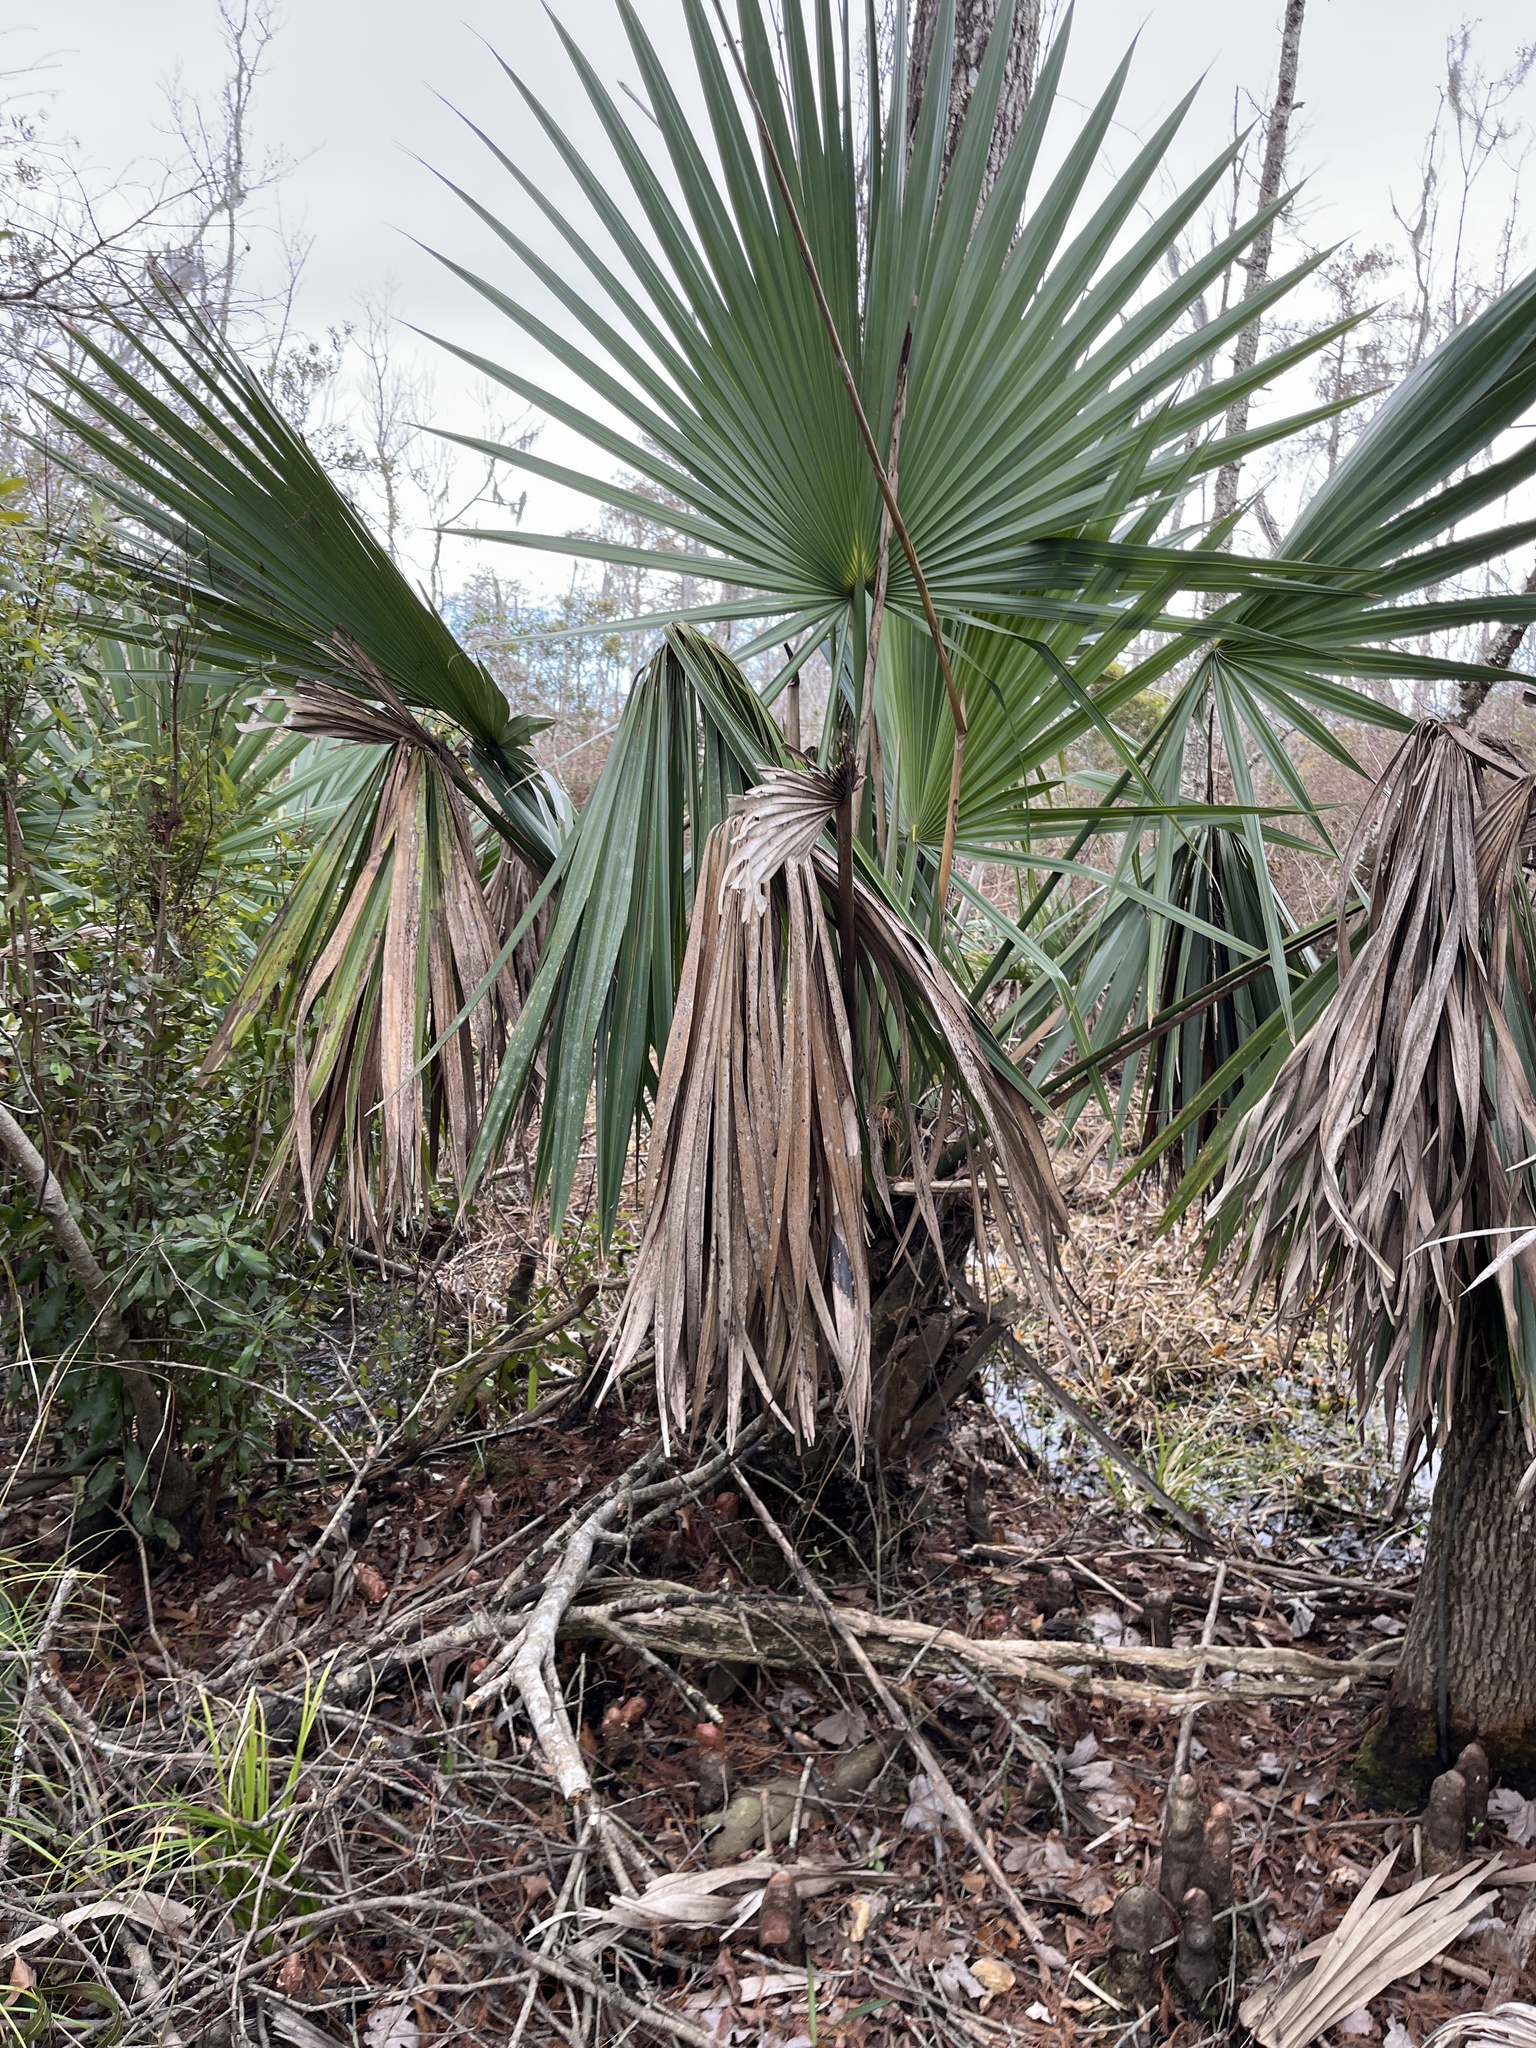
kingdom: Plantae
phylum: Tracheophyta
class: Liliopsida
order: Arecales
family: Arecaceae
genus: Sabal
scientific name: Sabal minor
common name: Dwarf palmetto
